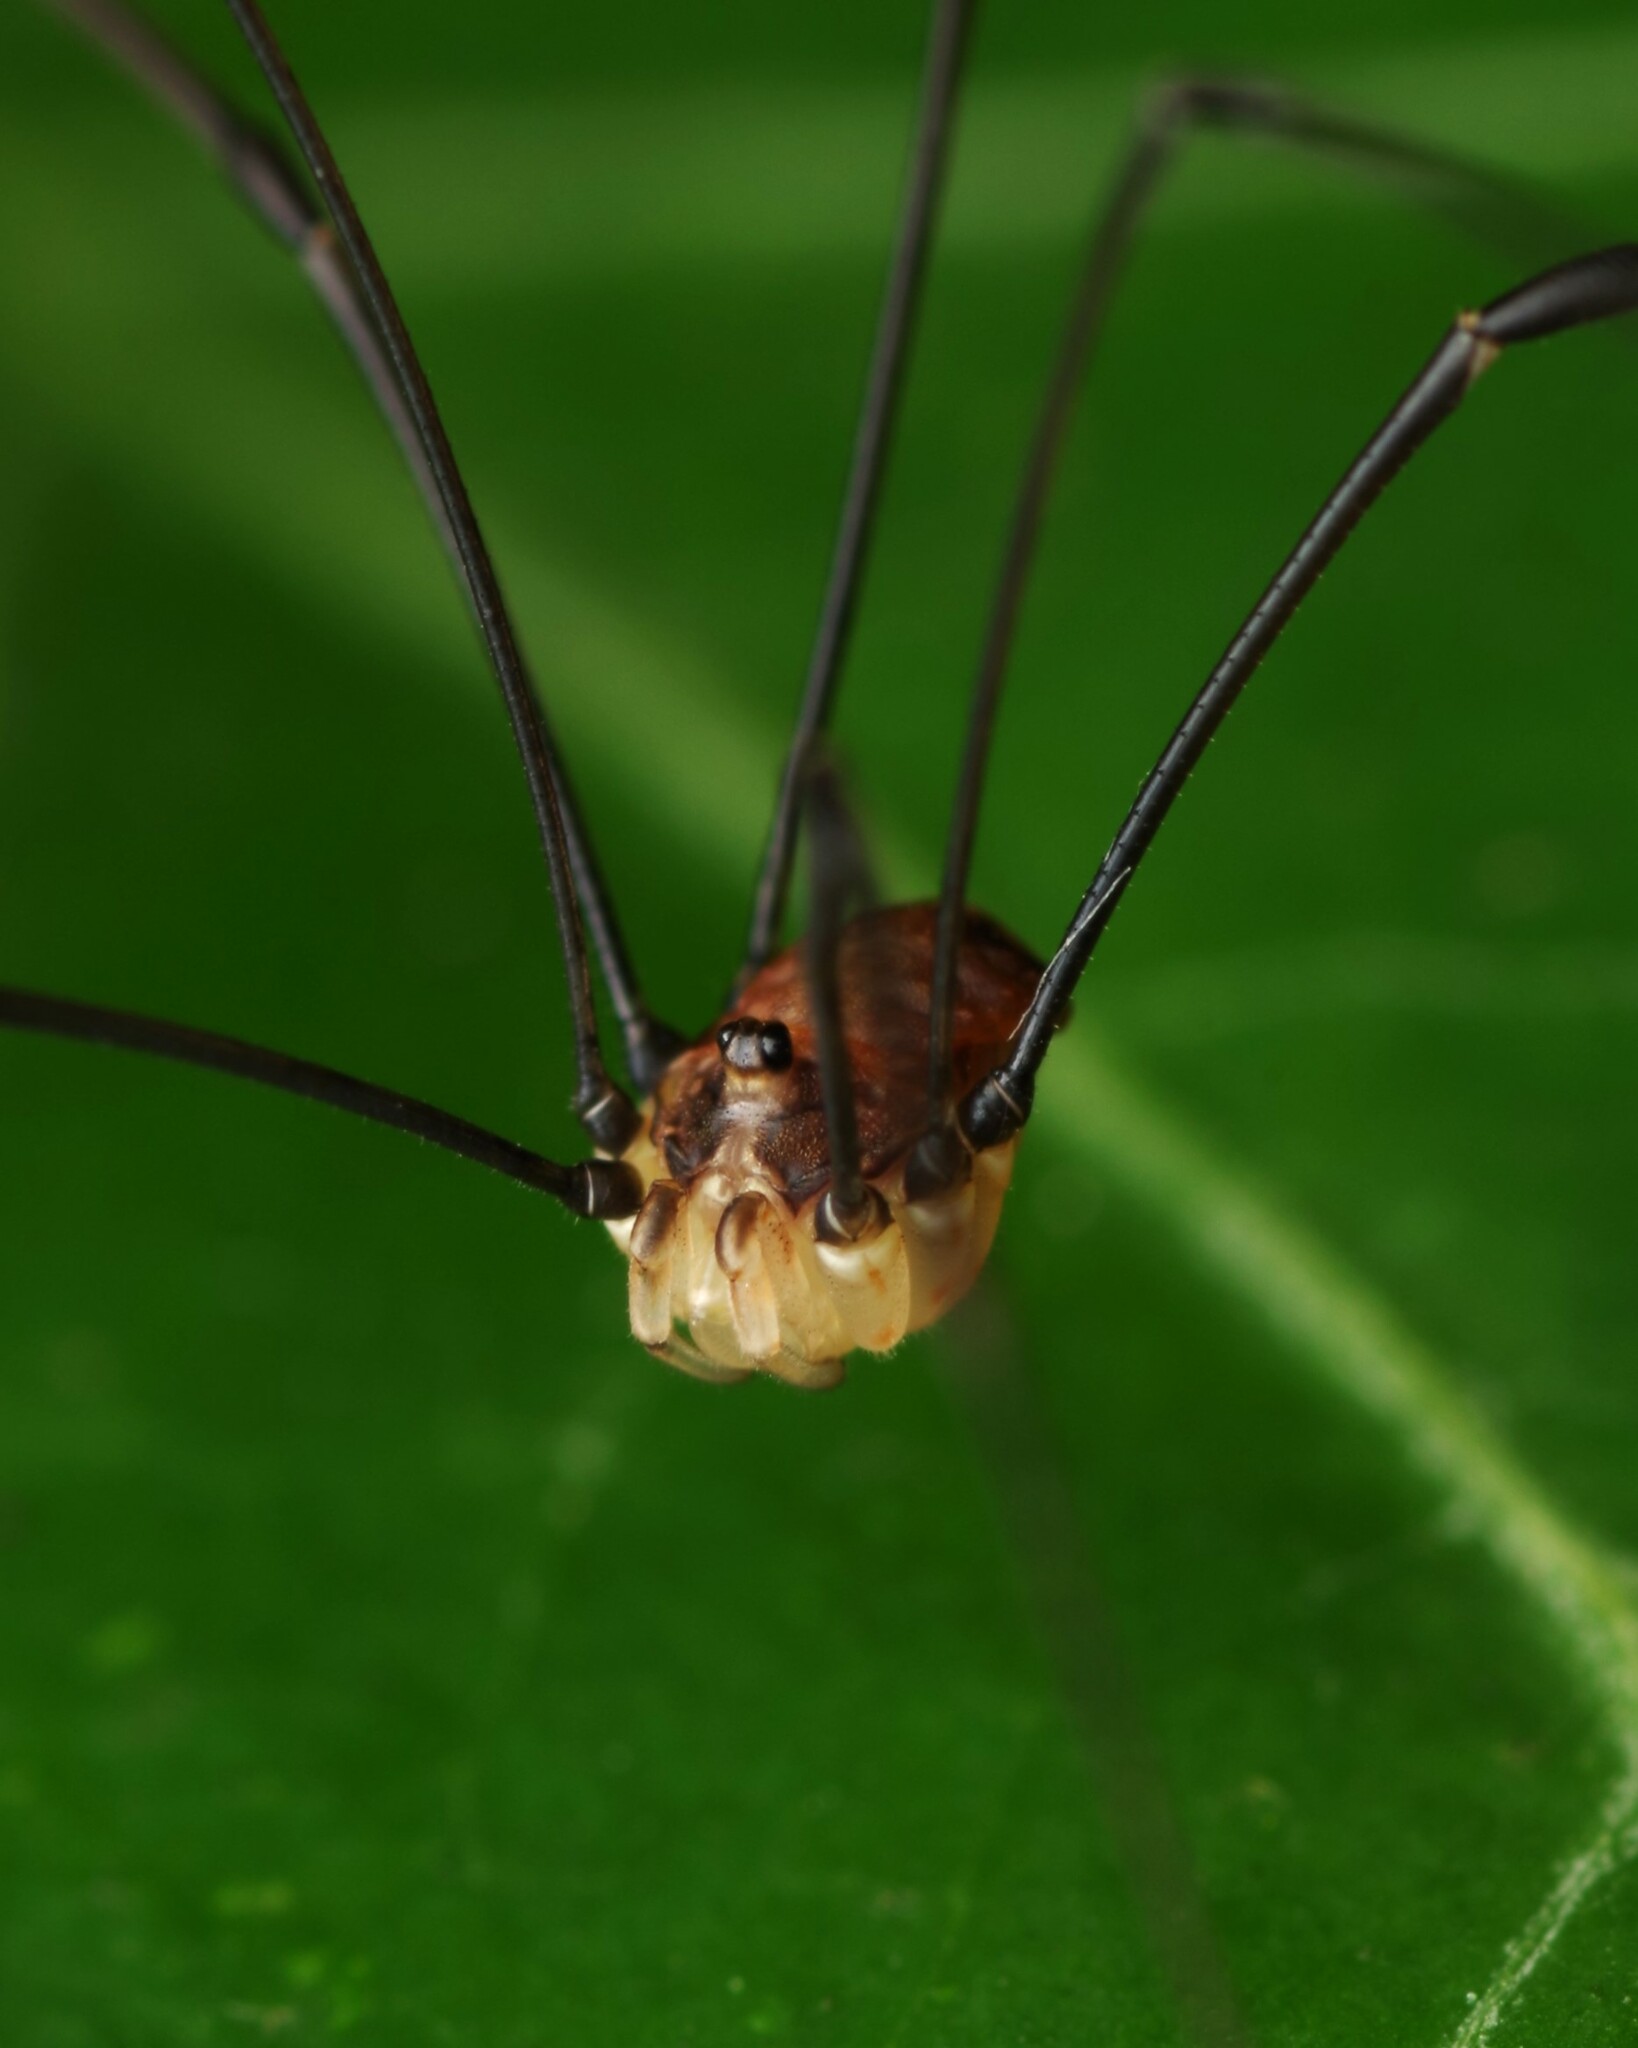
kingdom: Animalia
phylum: Arthropoda
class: Arachnida
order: Opiliones
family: Sclerosomatidae
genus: Leiobunum
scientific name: Leiobunum blackwalli
